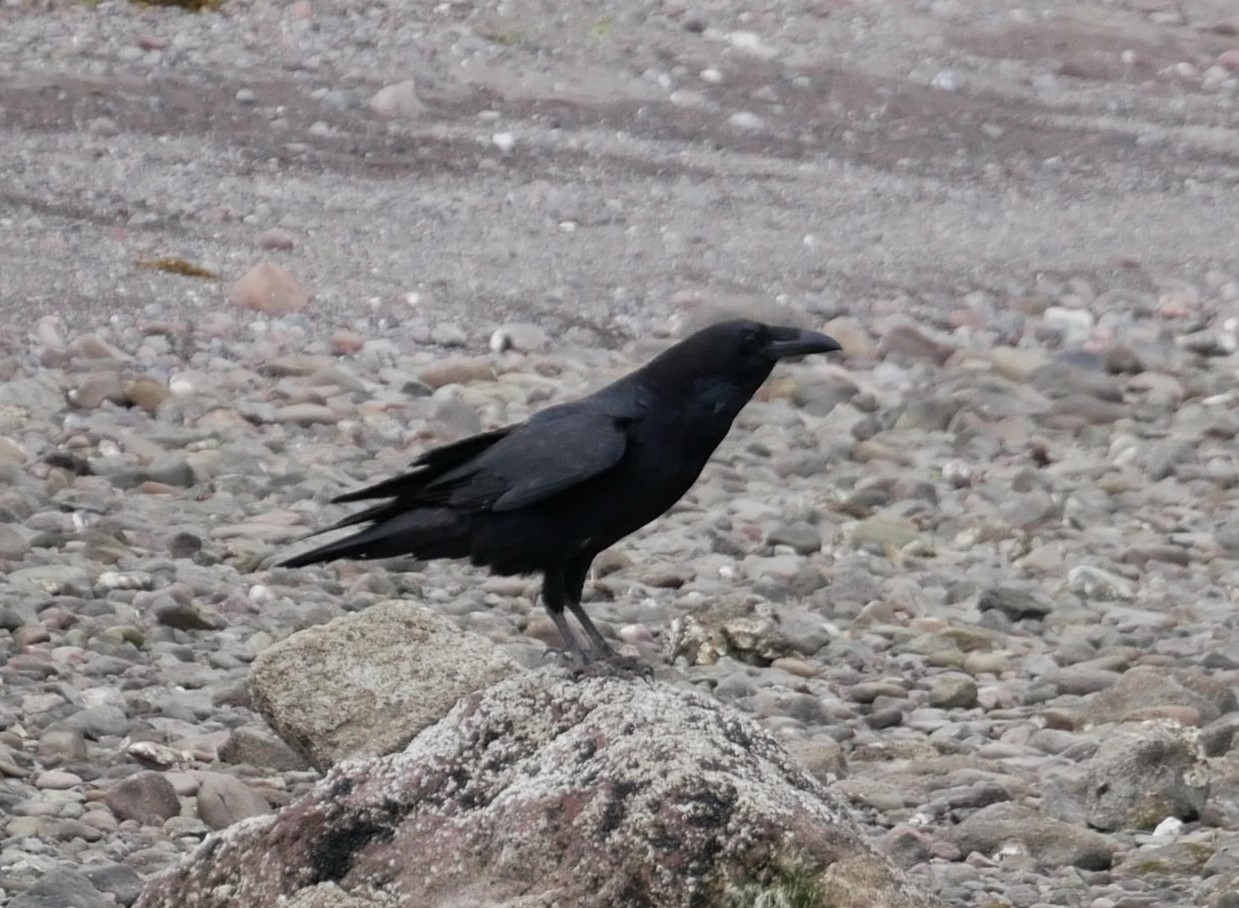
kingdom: Animalia
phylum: Chordata
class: Aves
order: Passeriformes
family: Corvidae
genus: Corvus
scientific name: Corvus corax
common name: Common raven
